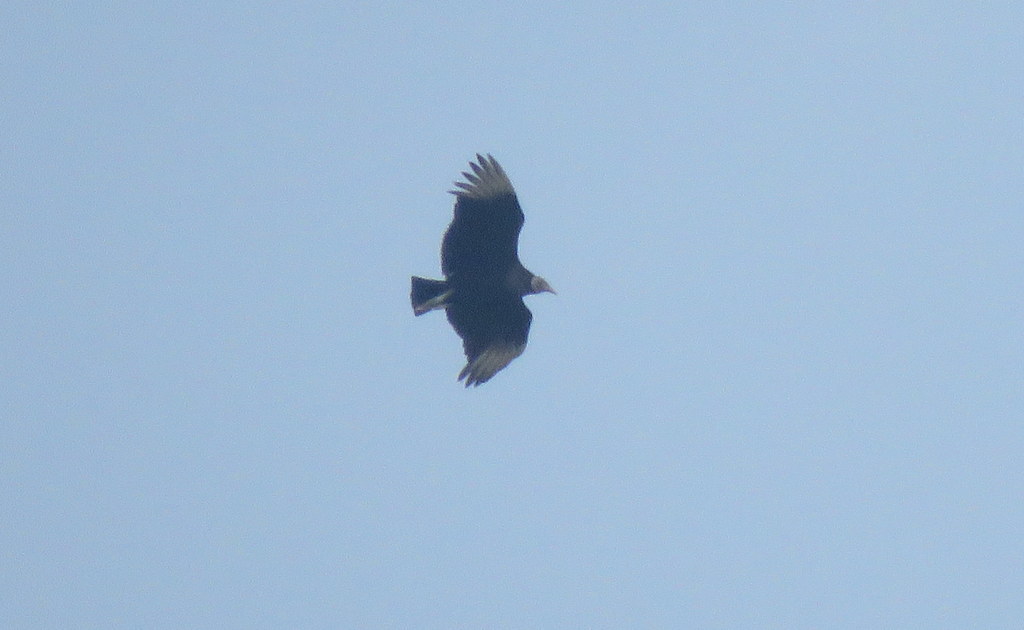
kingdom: Animalia
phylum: Chordata
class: Aves
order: Accipitriformes
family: Cathartidae
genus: Coragyps
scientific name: Coragyps atratus
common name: Black vulture
